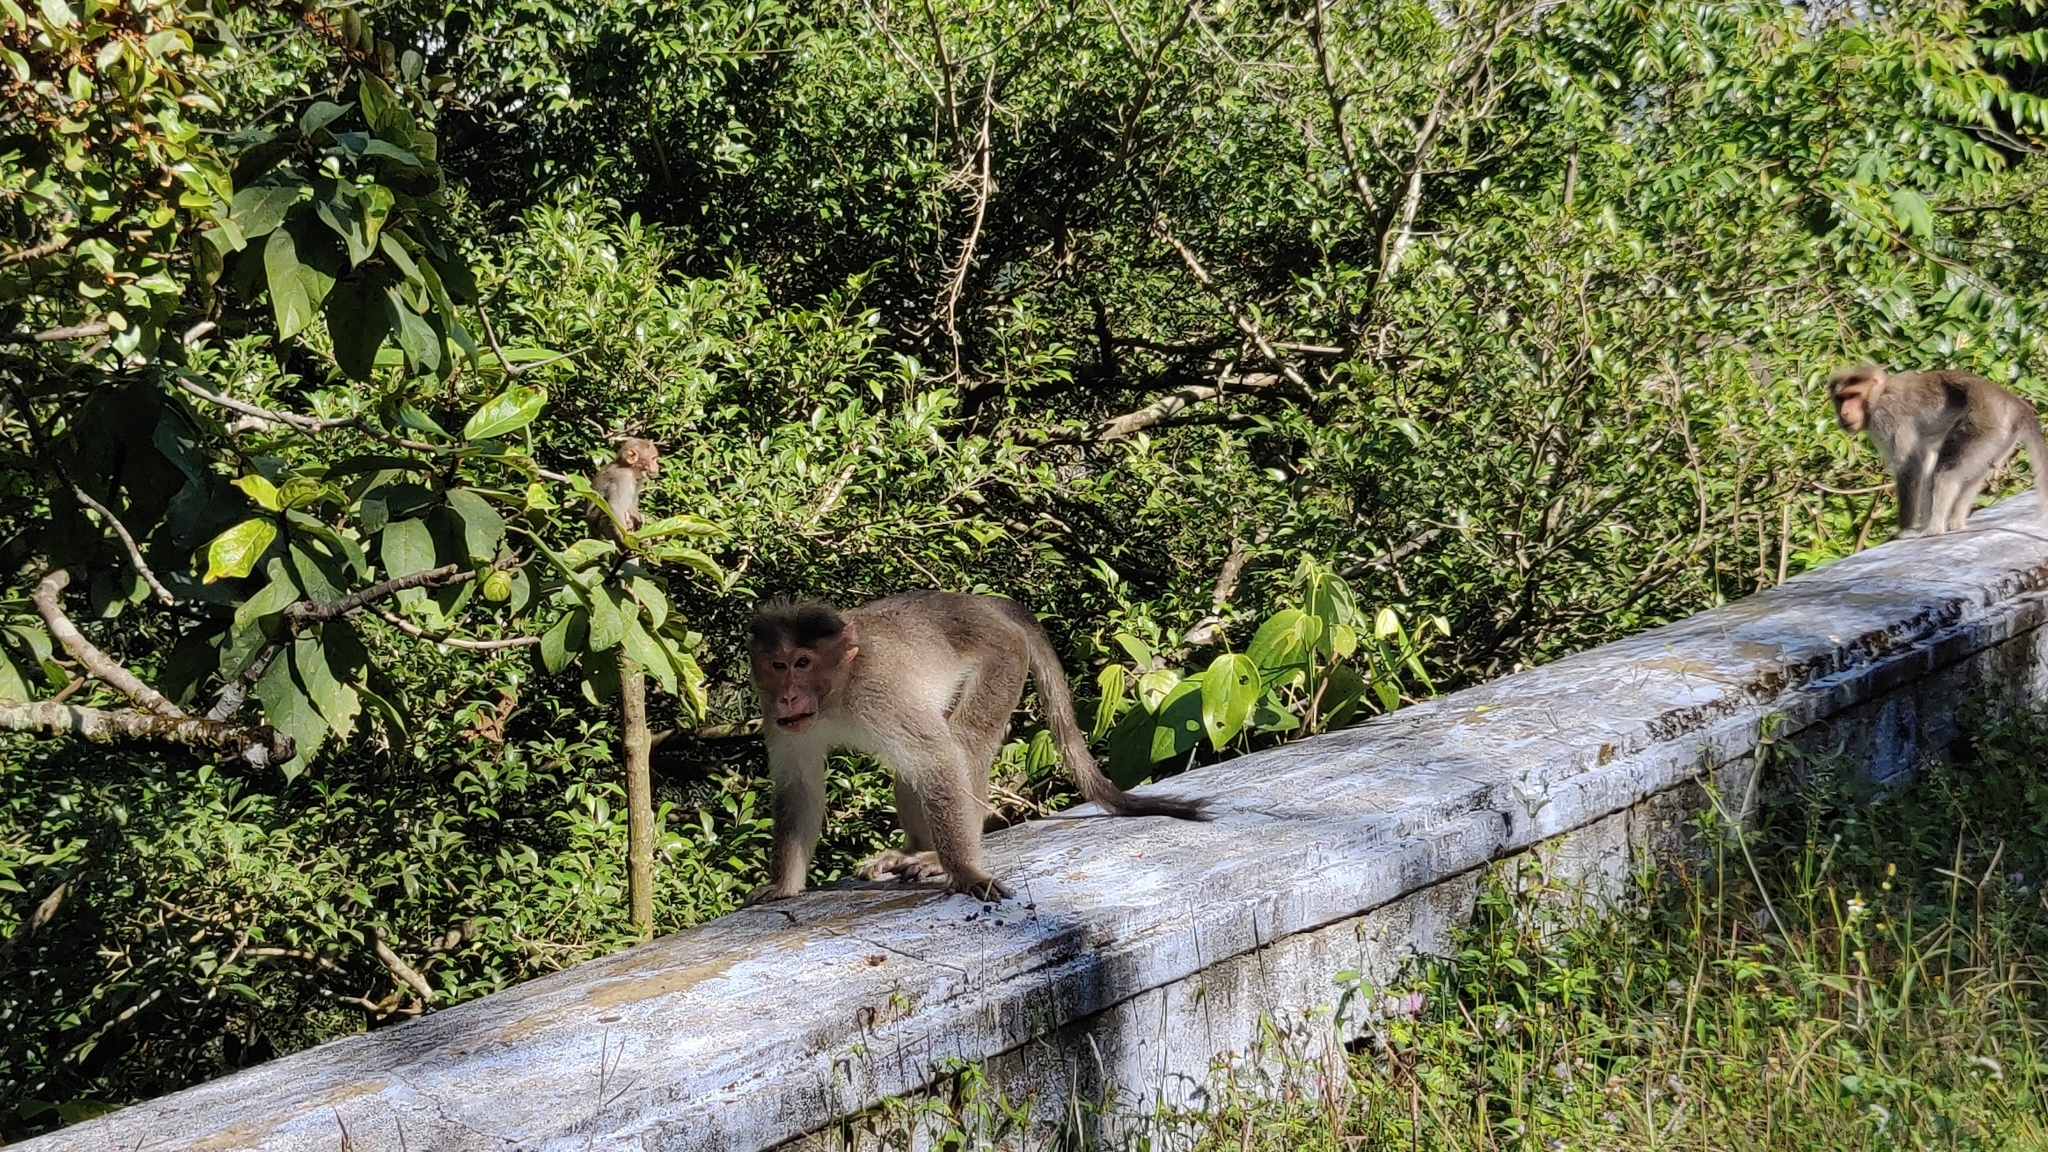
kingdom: Animalia
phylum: Chordata
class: Mammalia
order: Primates
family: Cercopithecidae
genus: Macaca
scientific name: Macaca radiata
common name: Bonnet macaque
